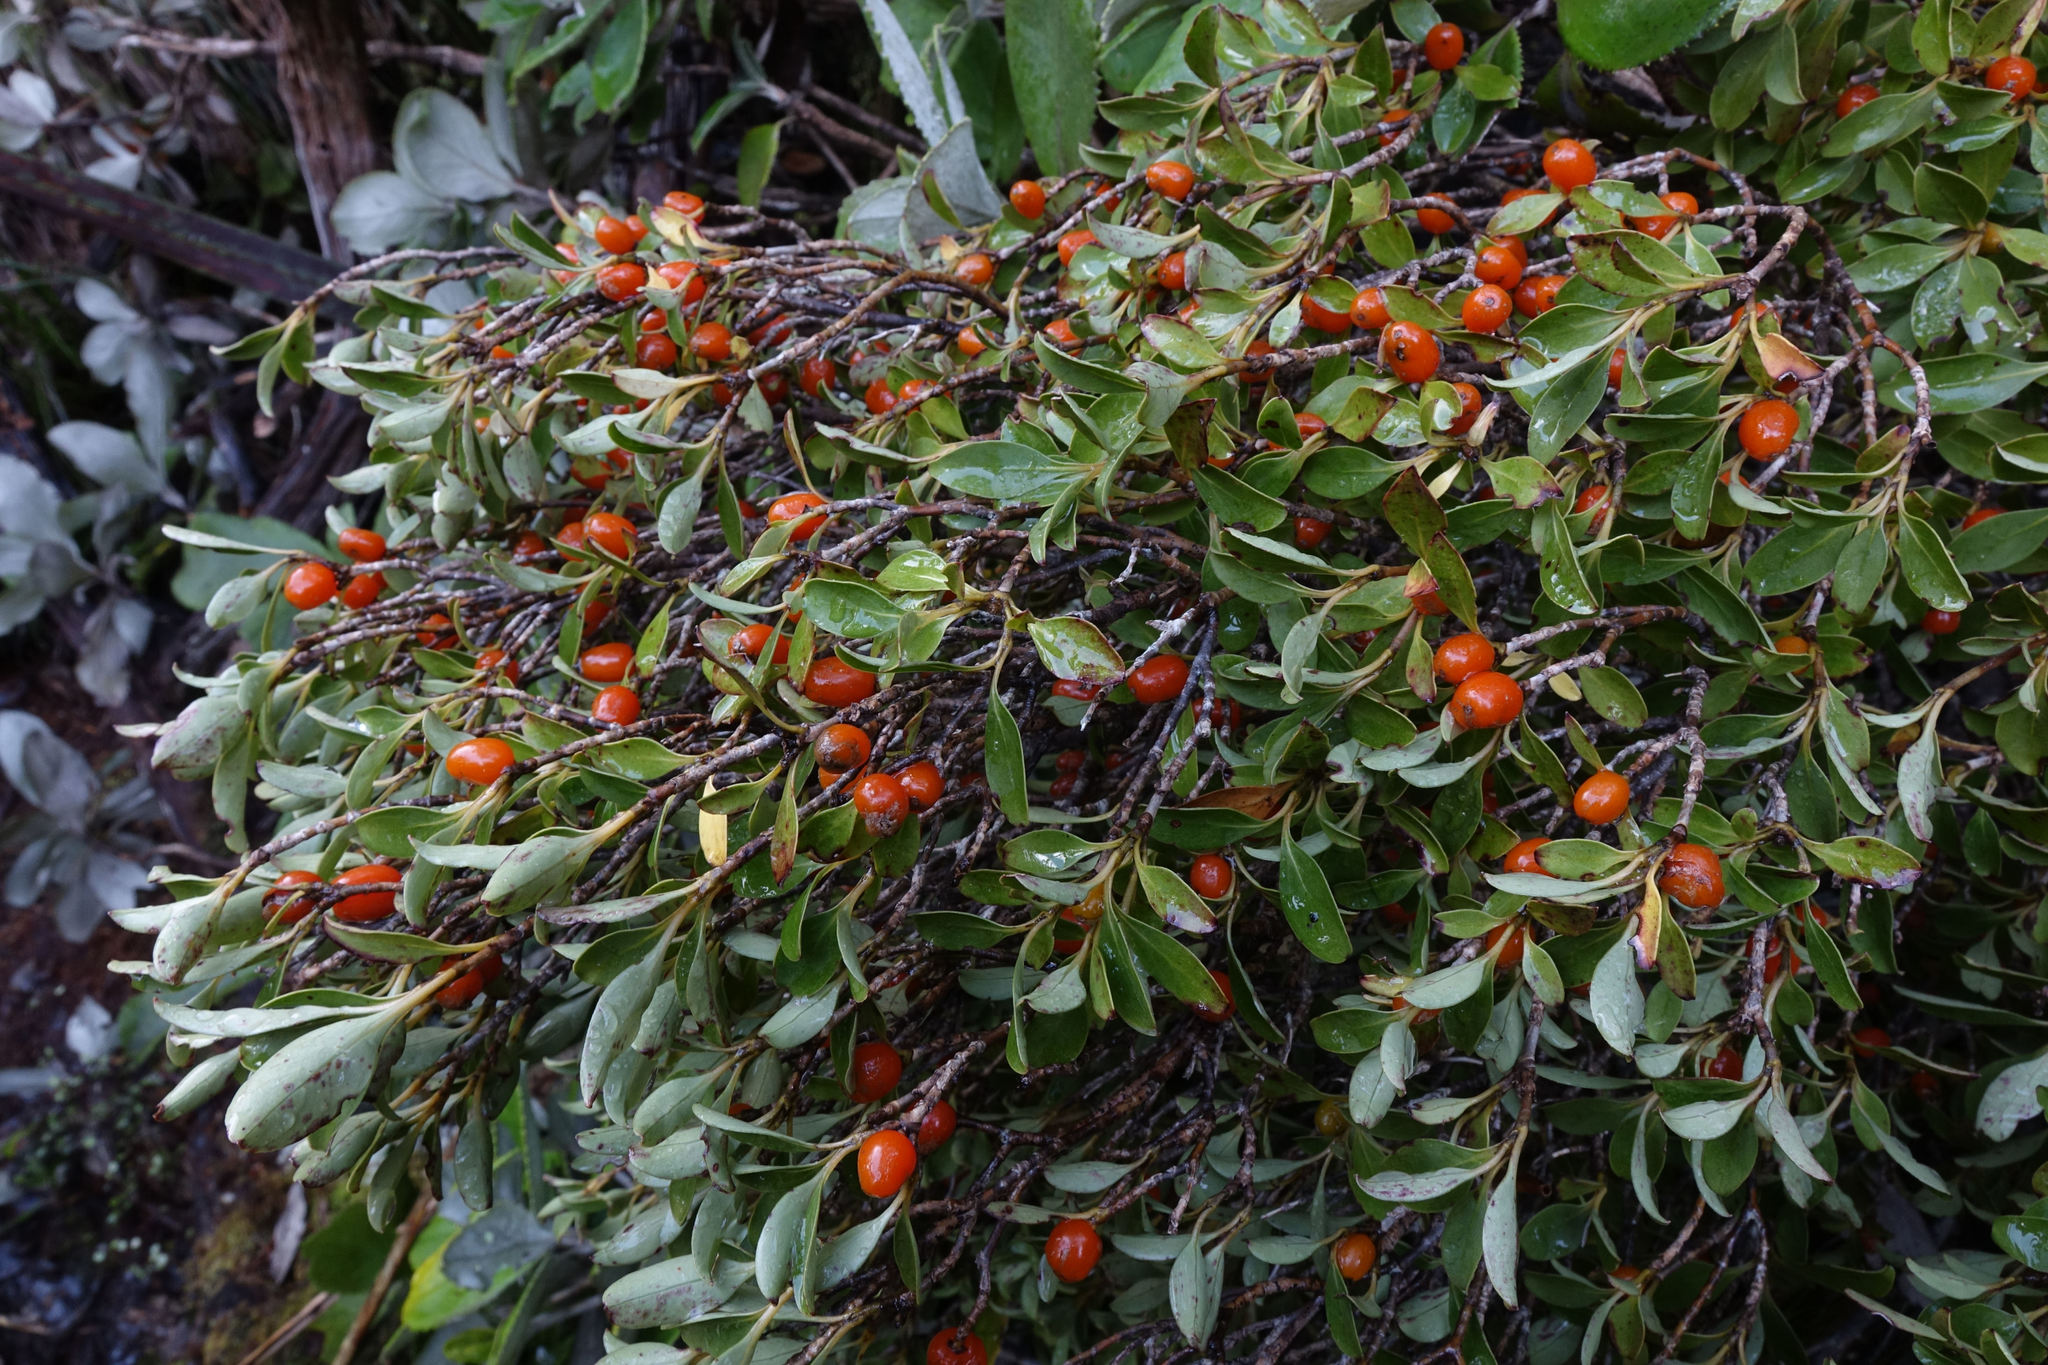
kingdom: Plantae
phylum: Tracheophyta
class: Magnoliopsida
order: Gentianales
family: Rubiaceae
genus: Coprosma
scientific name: Coprosma foetidissima
